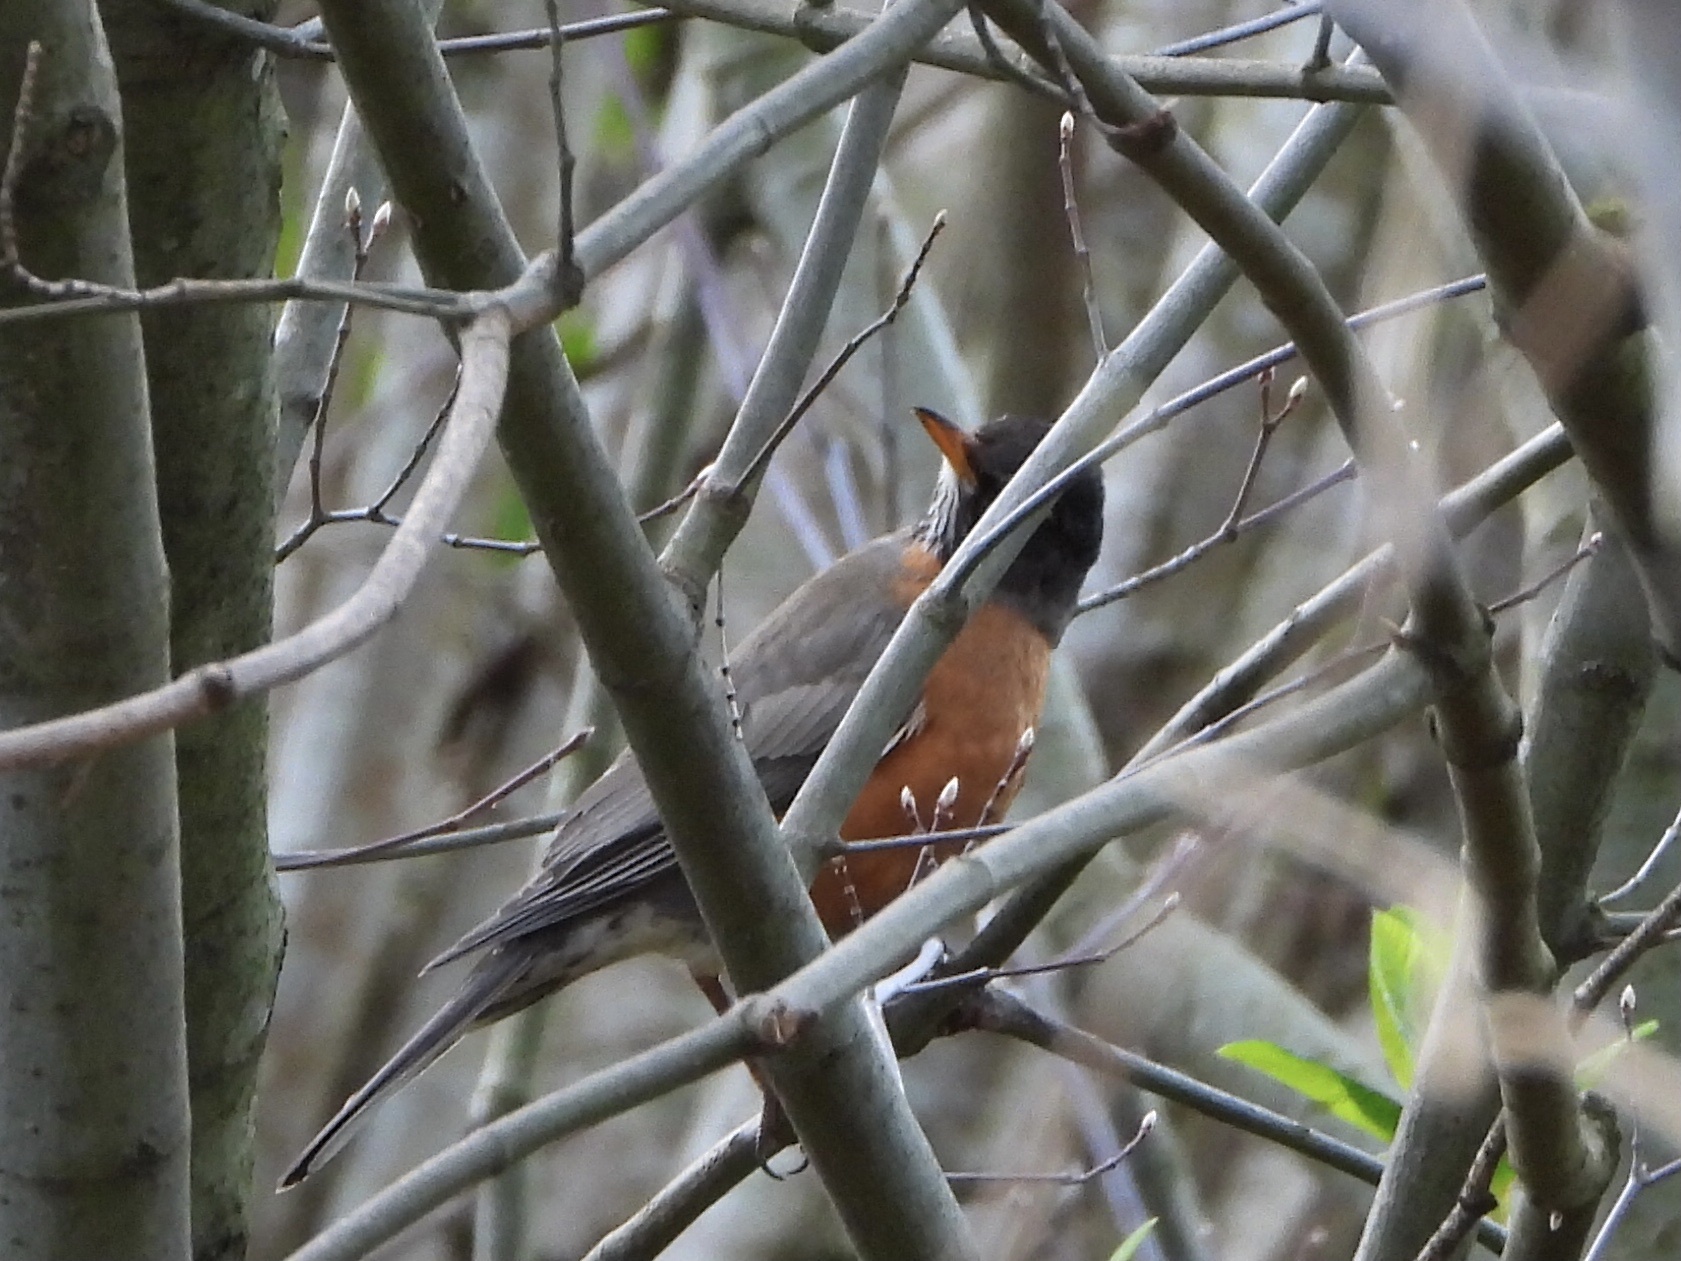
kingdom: Animalia
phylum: Chordata
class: Aves
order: Passeriformes
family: Turdidae
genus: Turdus
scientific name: Turdus migratorius
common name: American robin
